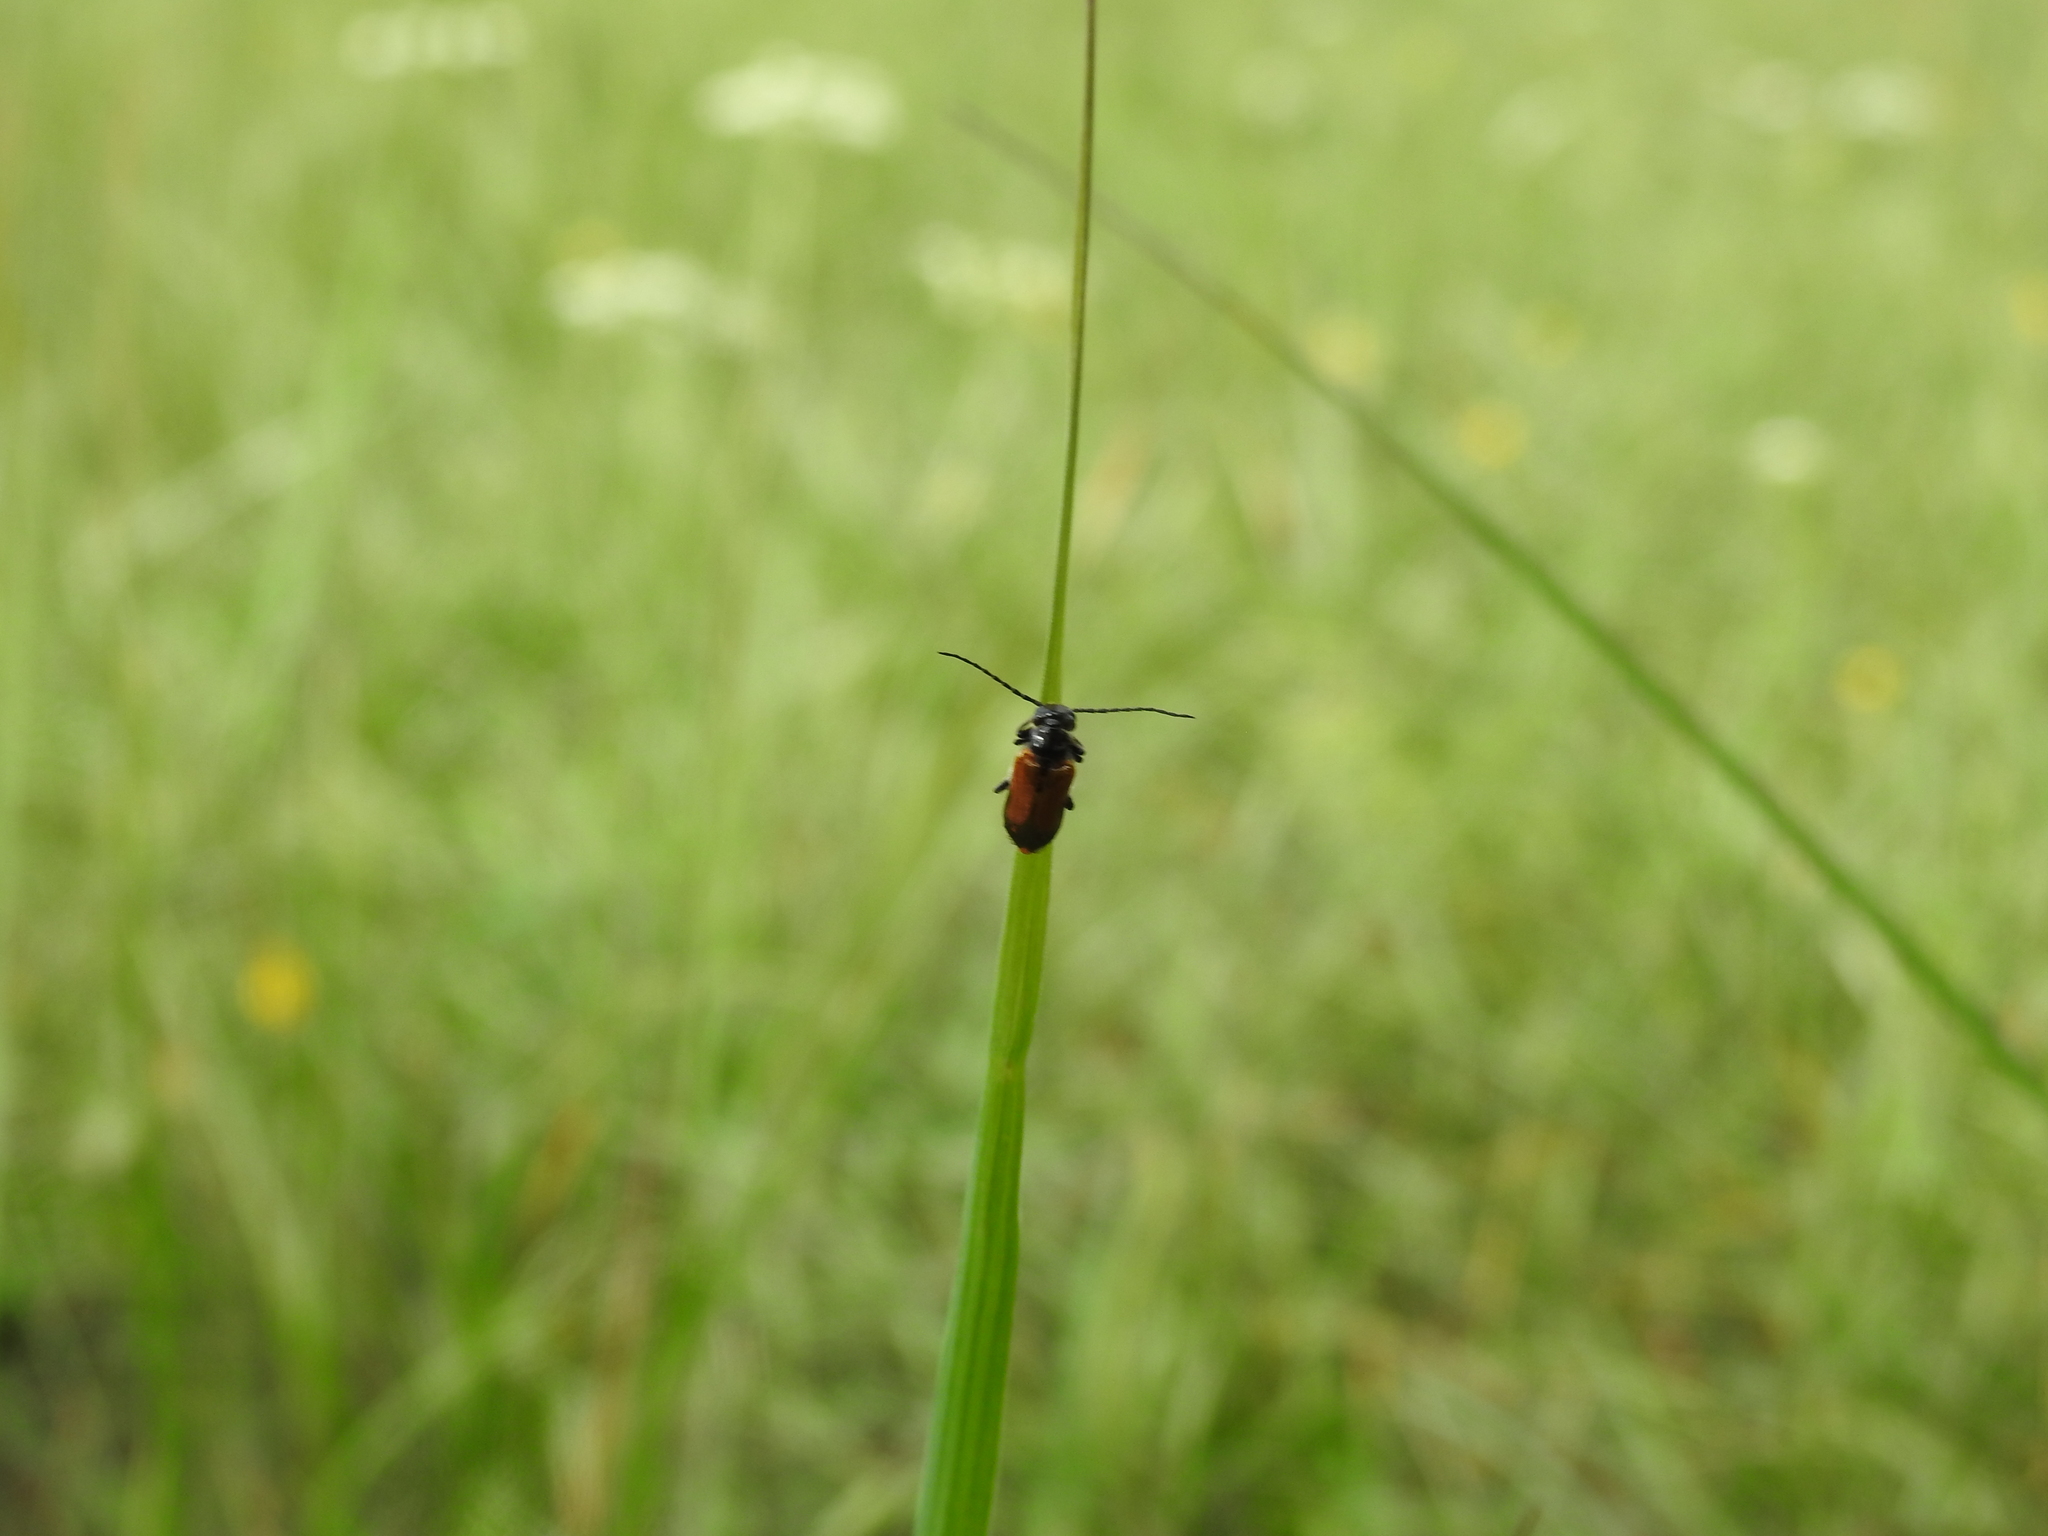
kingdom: Animalia
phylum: Arthropoda
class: Insecta
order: Coleoptera
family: Meloidae
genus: Stenoria
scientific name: Stenoria analis
